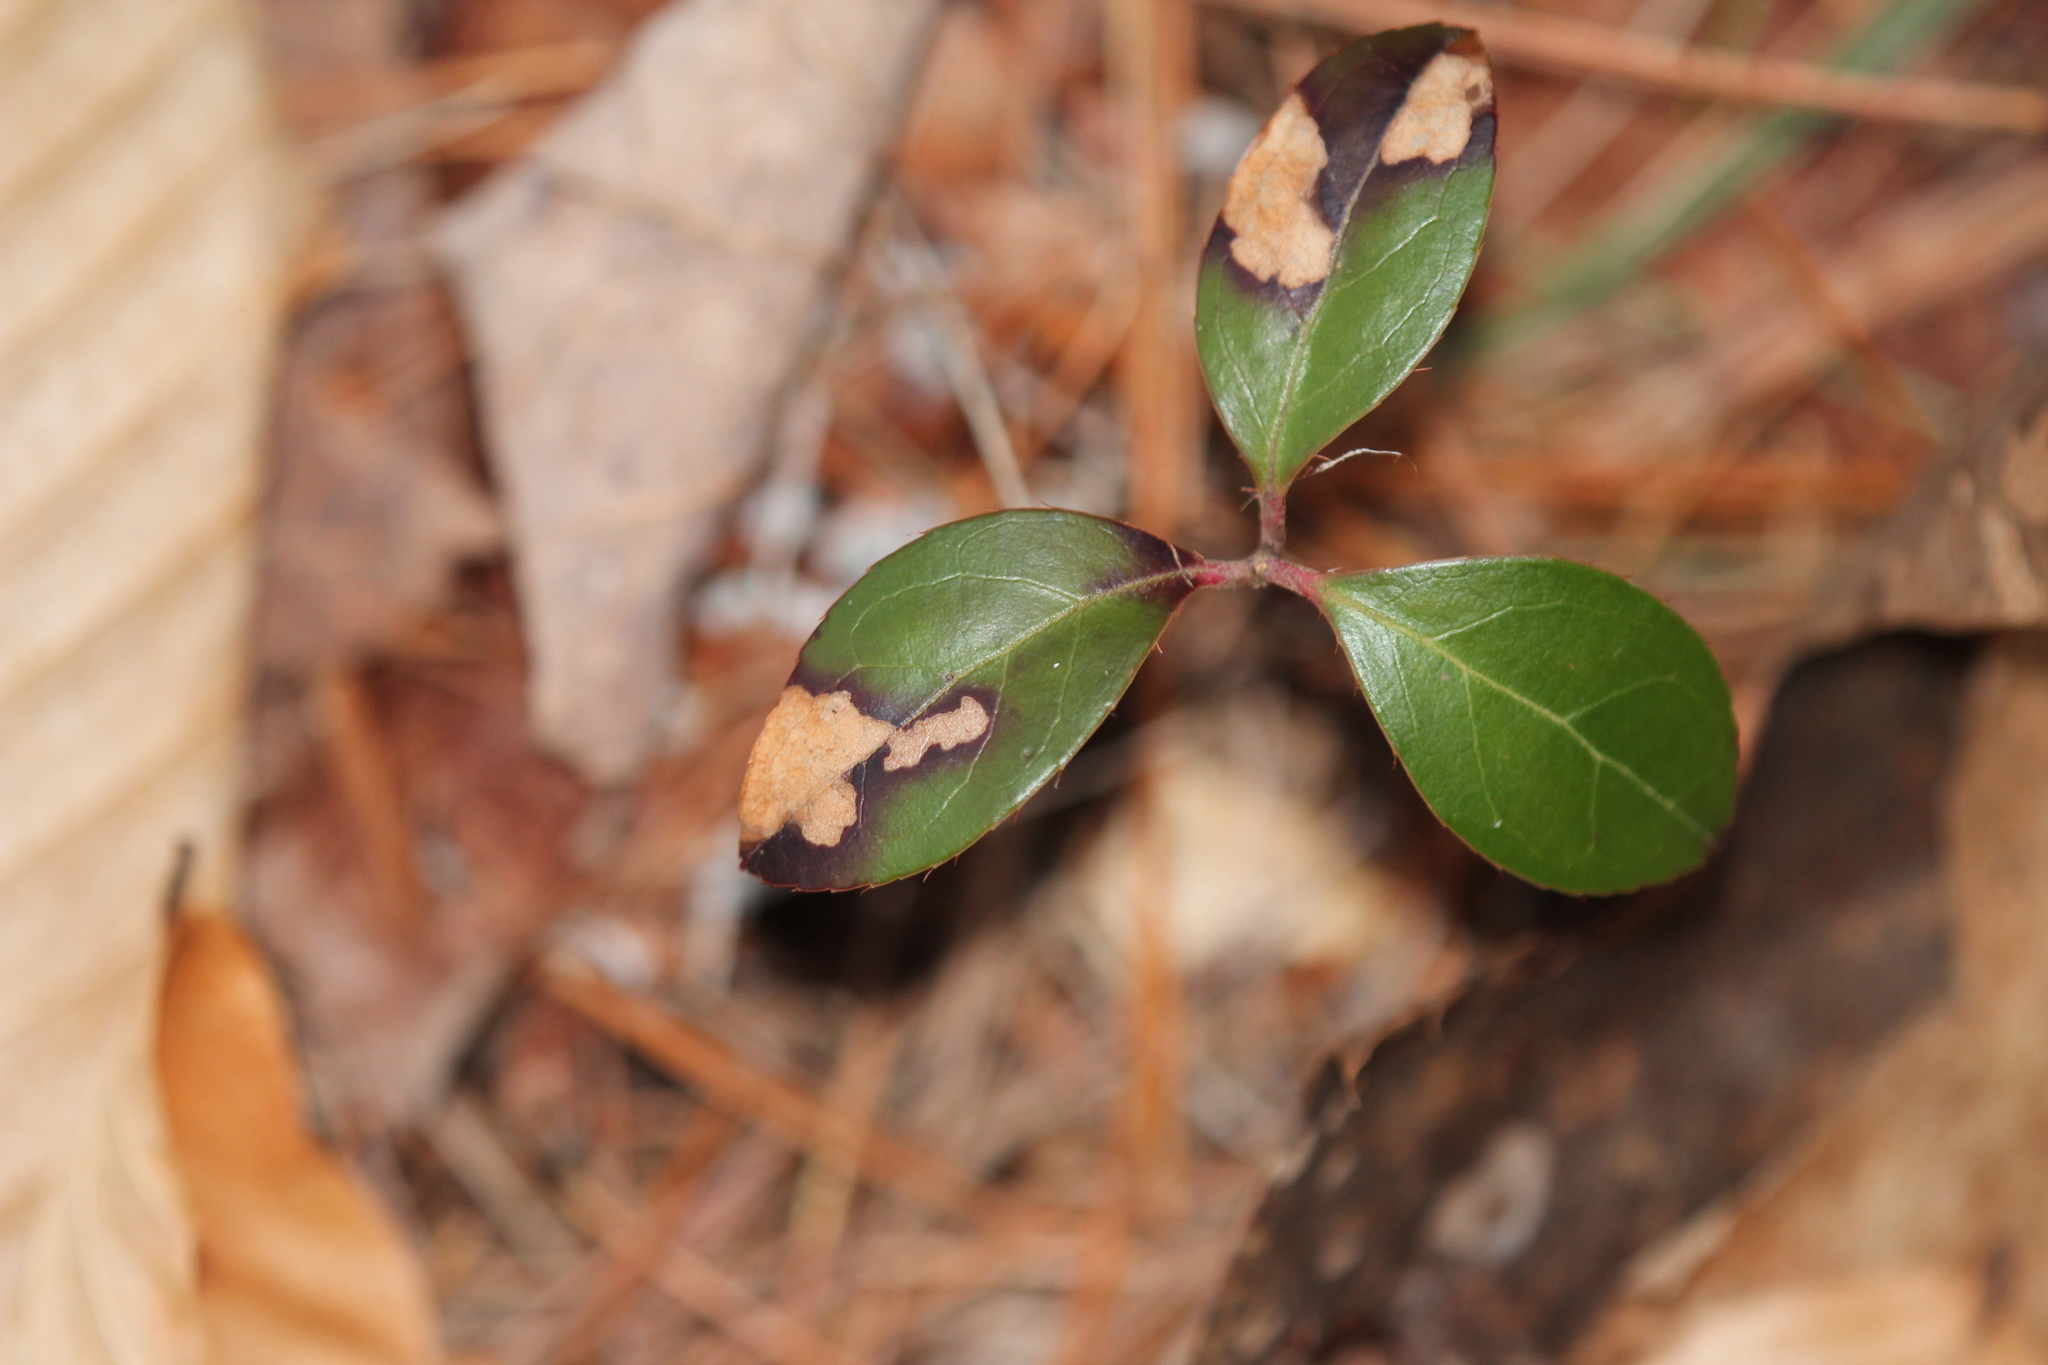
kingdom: Plantae
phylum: Tracheophyta
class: Magnoliopsida
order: Ericales
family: Ericaceae
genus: Gaultheria
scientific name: Gaultheria procumbens
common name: Checkerberry
